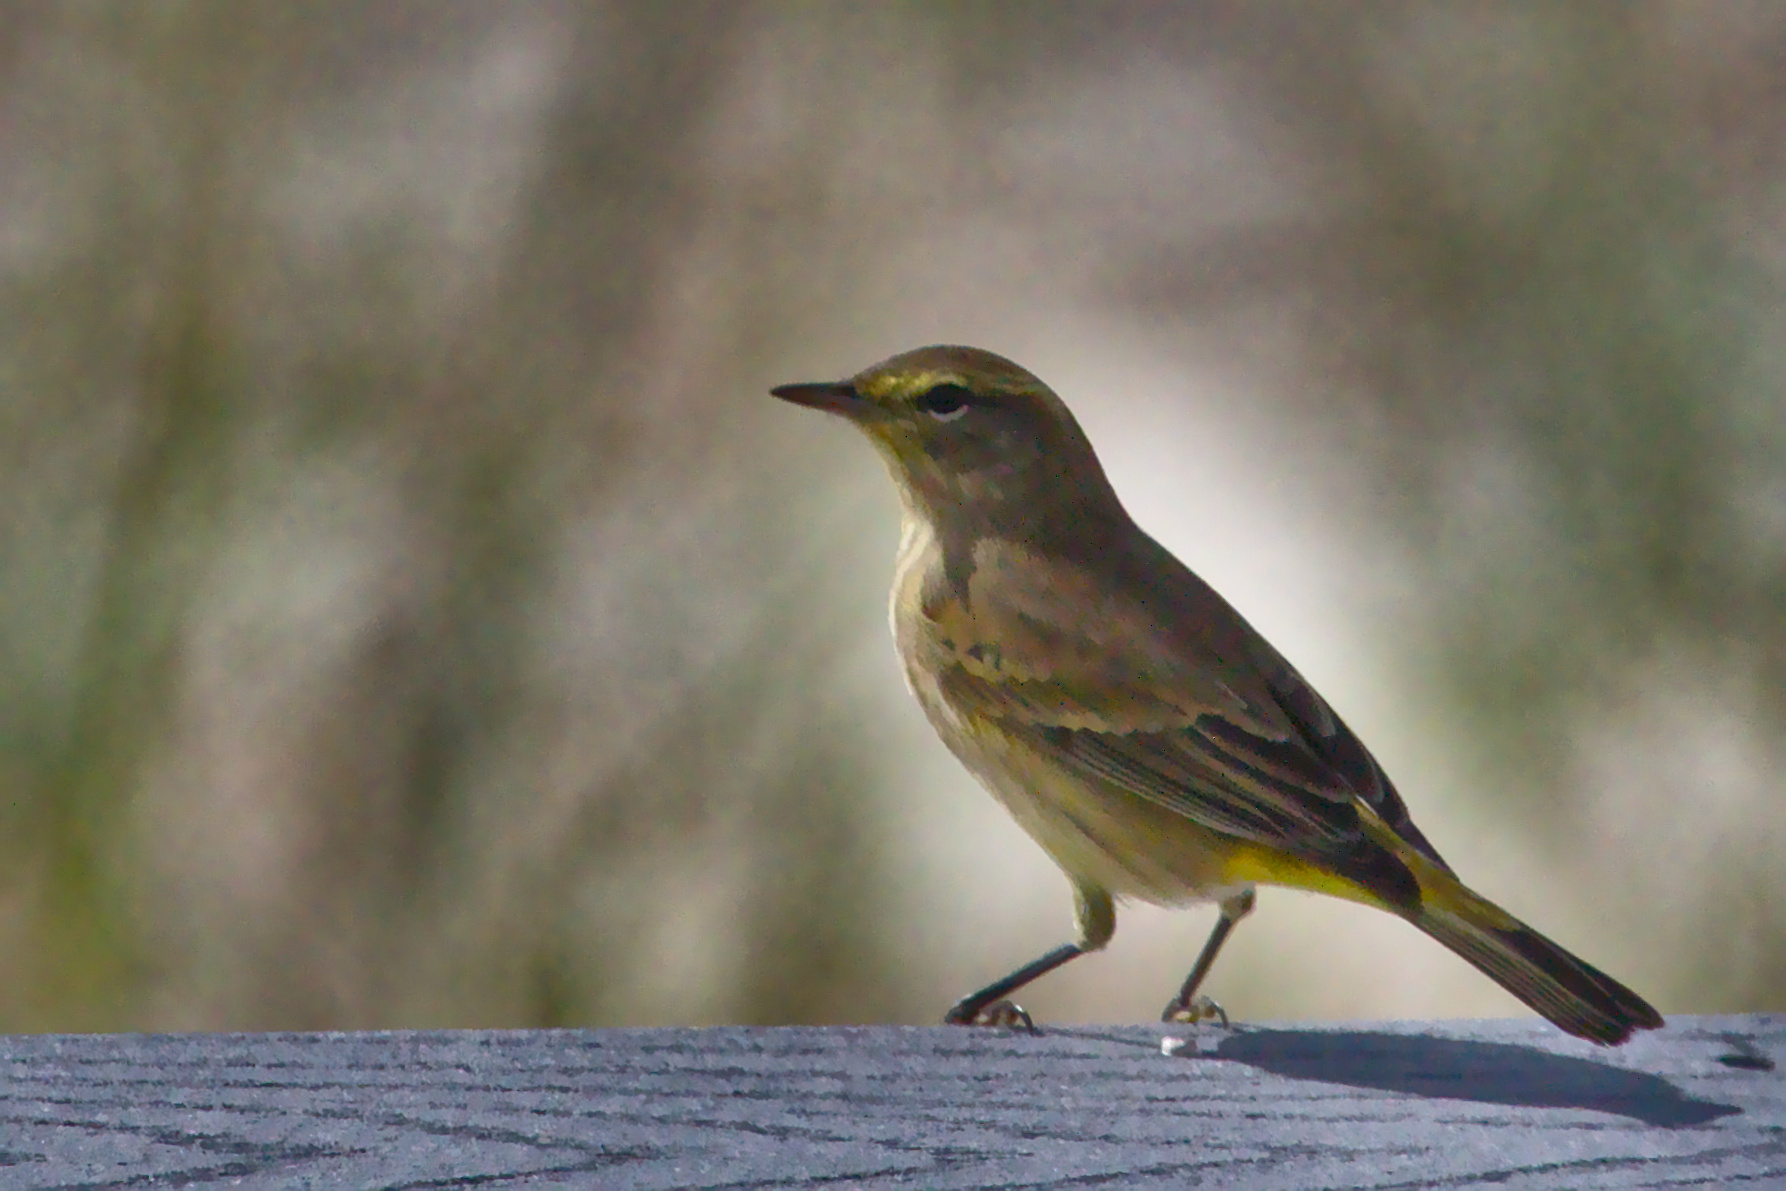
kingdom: Animalia
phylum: Chordata
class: Aves
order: Passeriformes
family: Parulidae
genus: Setophaga
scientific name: Setophaga palmarum
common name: Palm warbler
